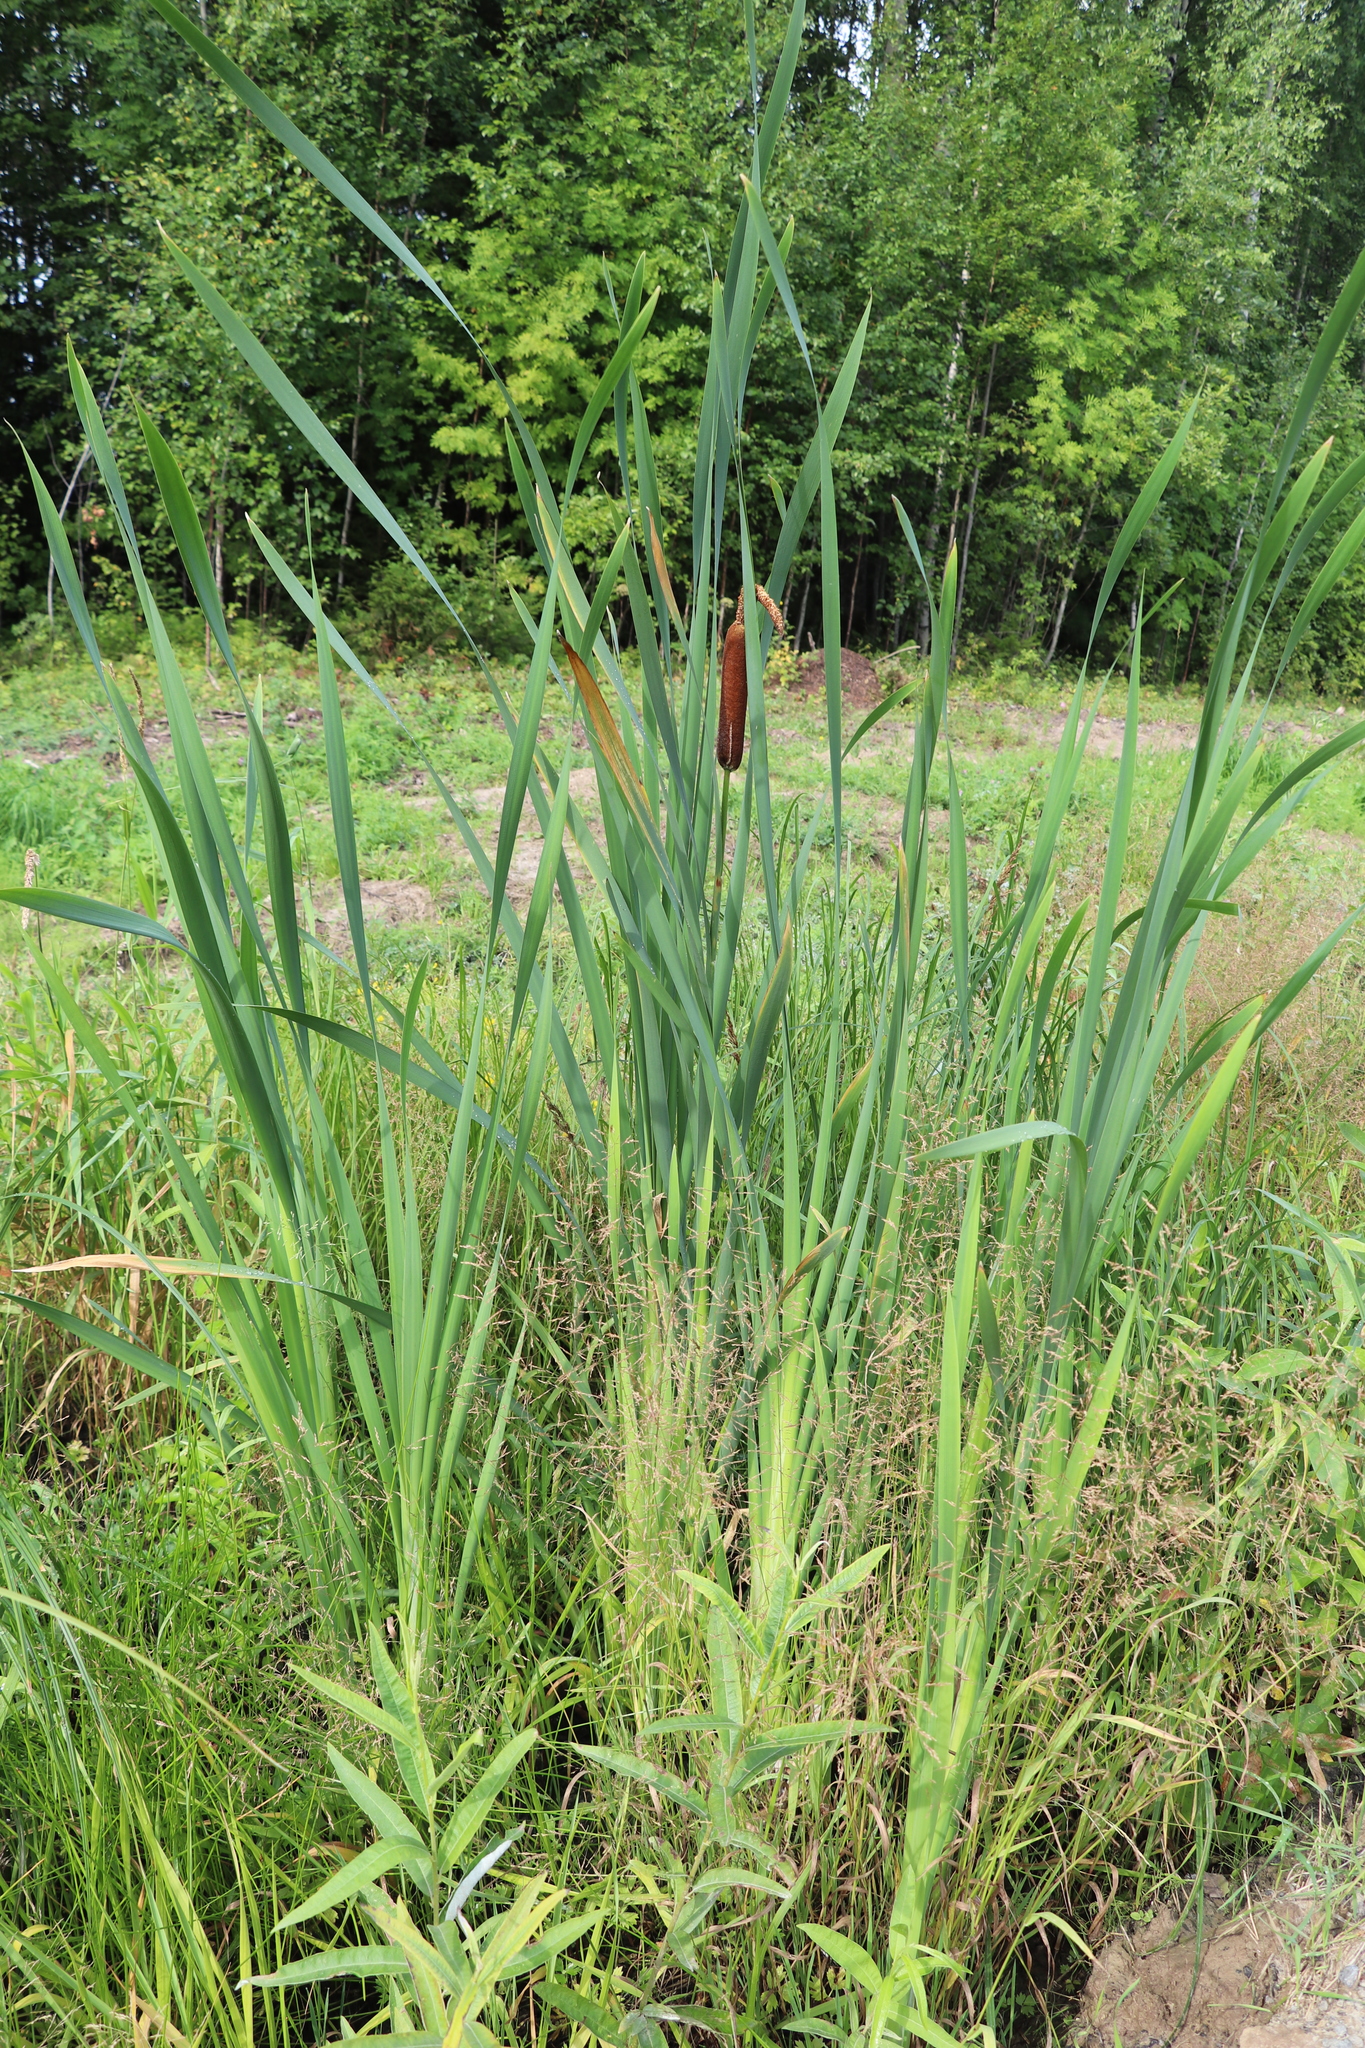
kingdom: Plantae
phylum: Tracheophyta
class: Liliopsida
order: Poales
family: Typhaceae
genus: Typha
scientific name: Typha latifolia
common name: Broadleaf cattail
